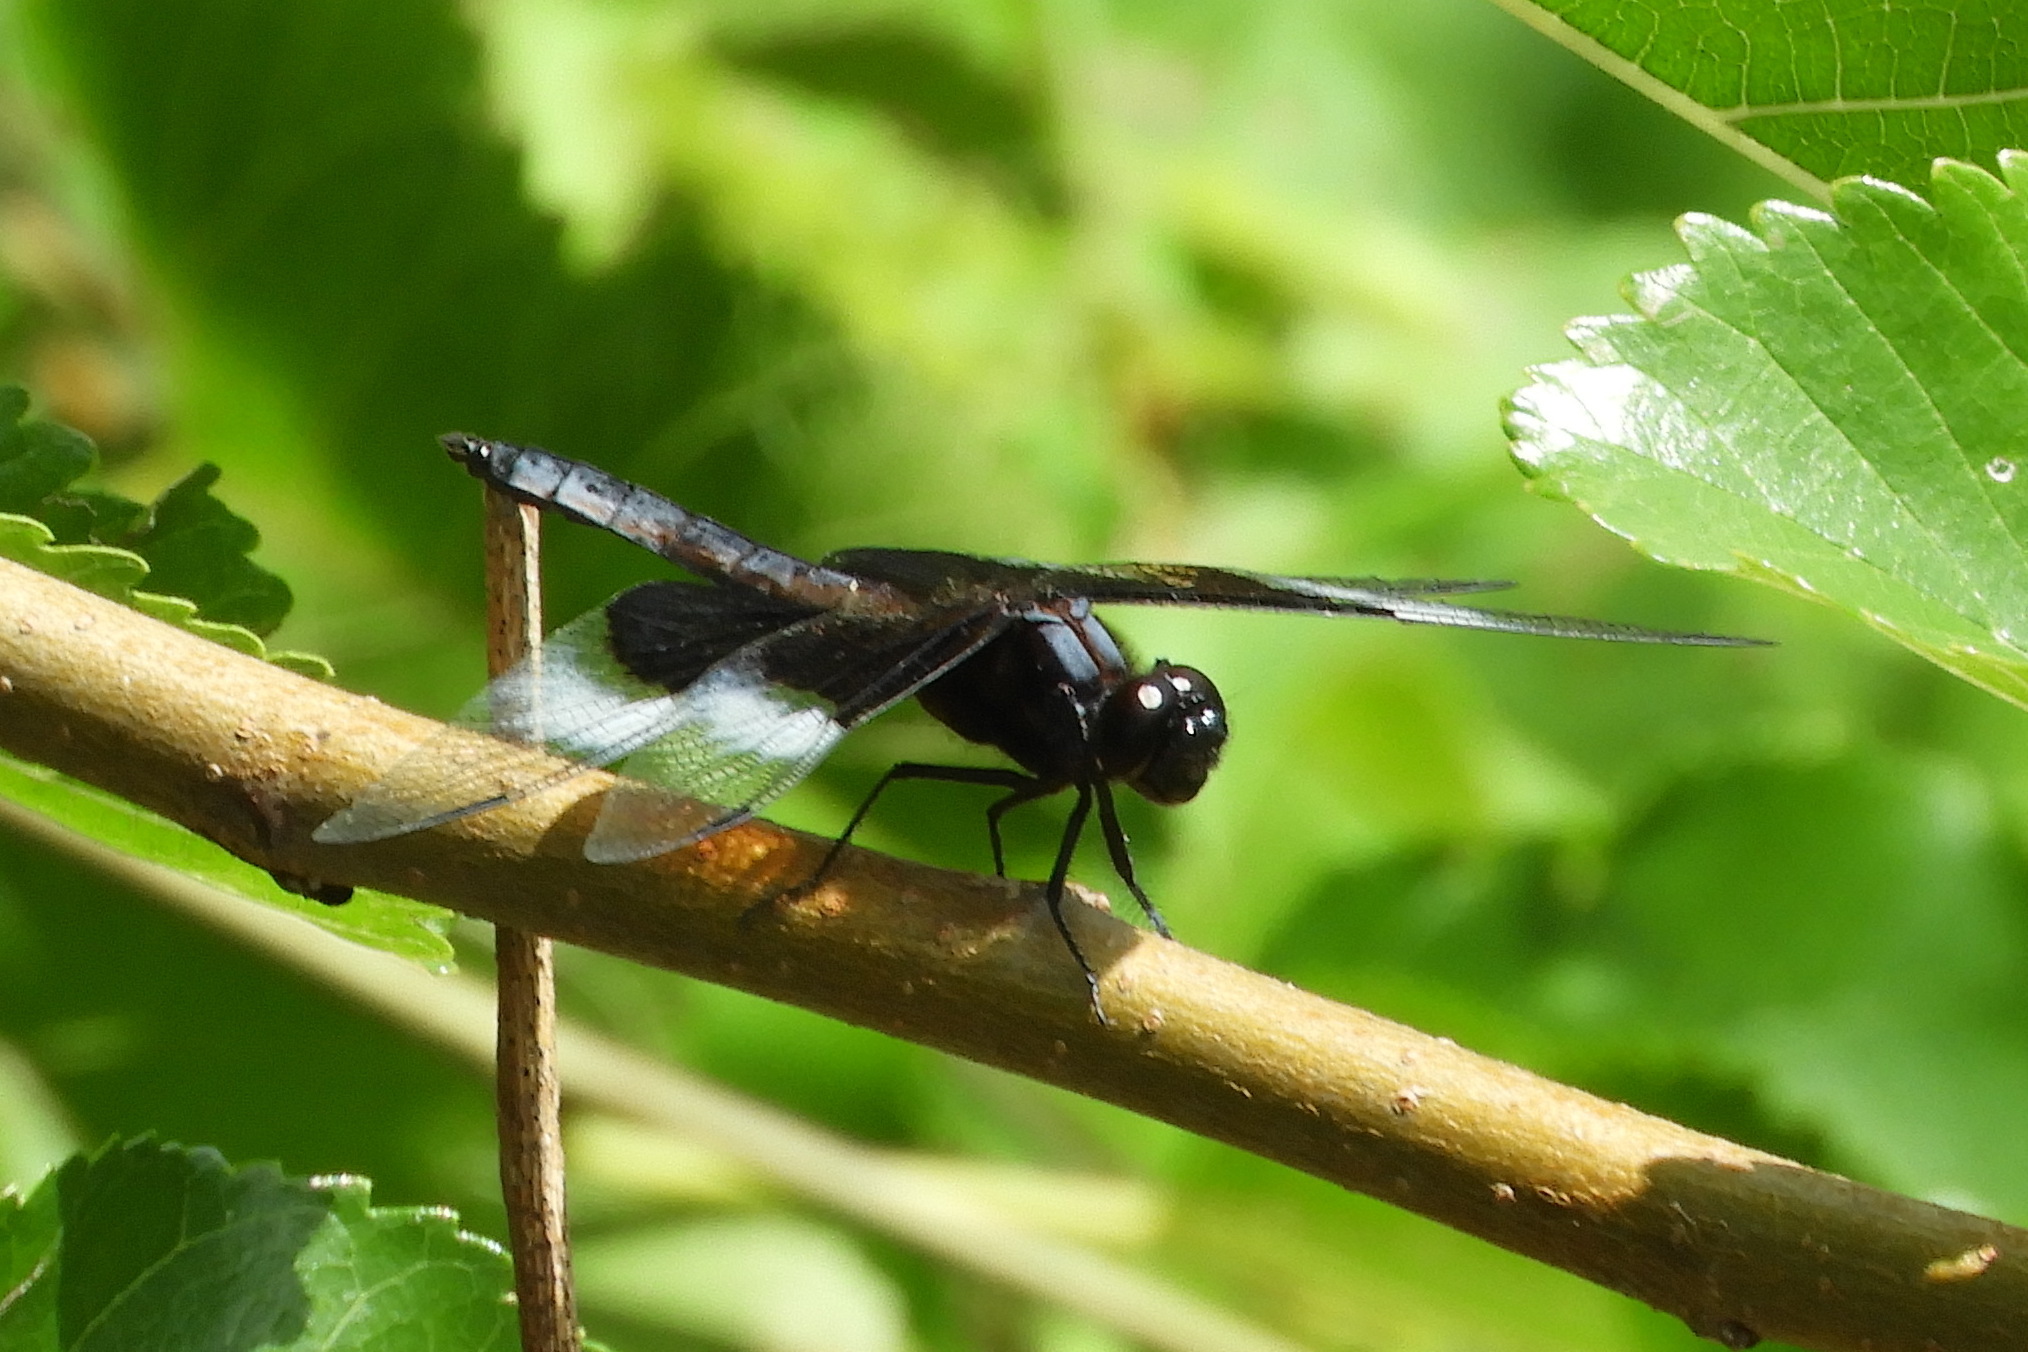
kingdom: Animalia
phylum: Arthropoda
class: Insecta
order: Odonata
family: Libellulidae
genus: Libellula
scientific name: Libellula luctuosa
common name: Widow skimmer
